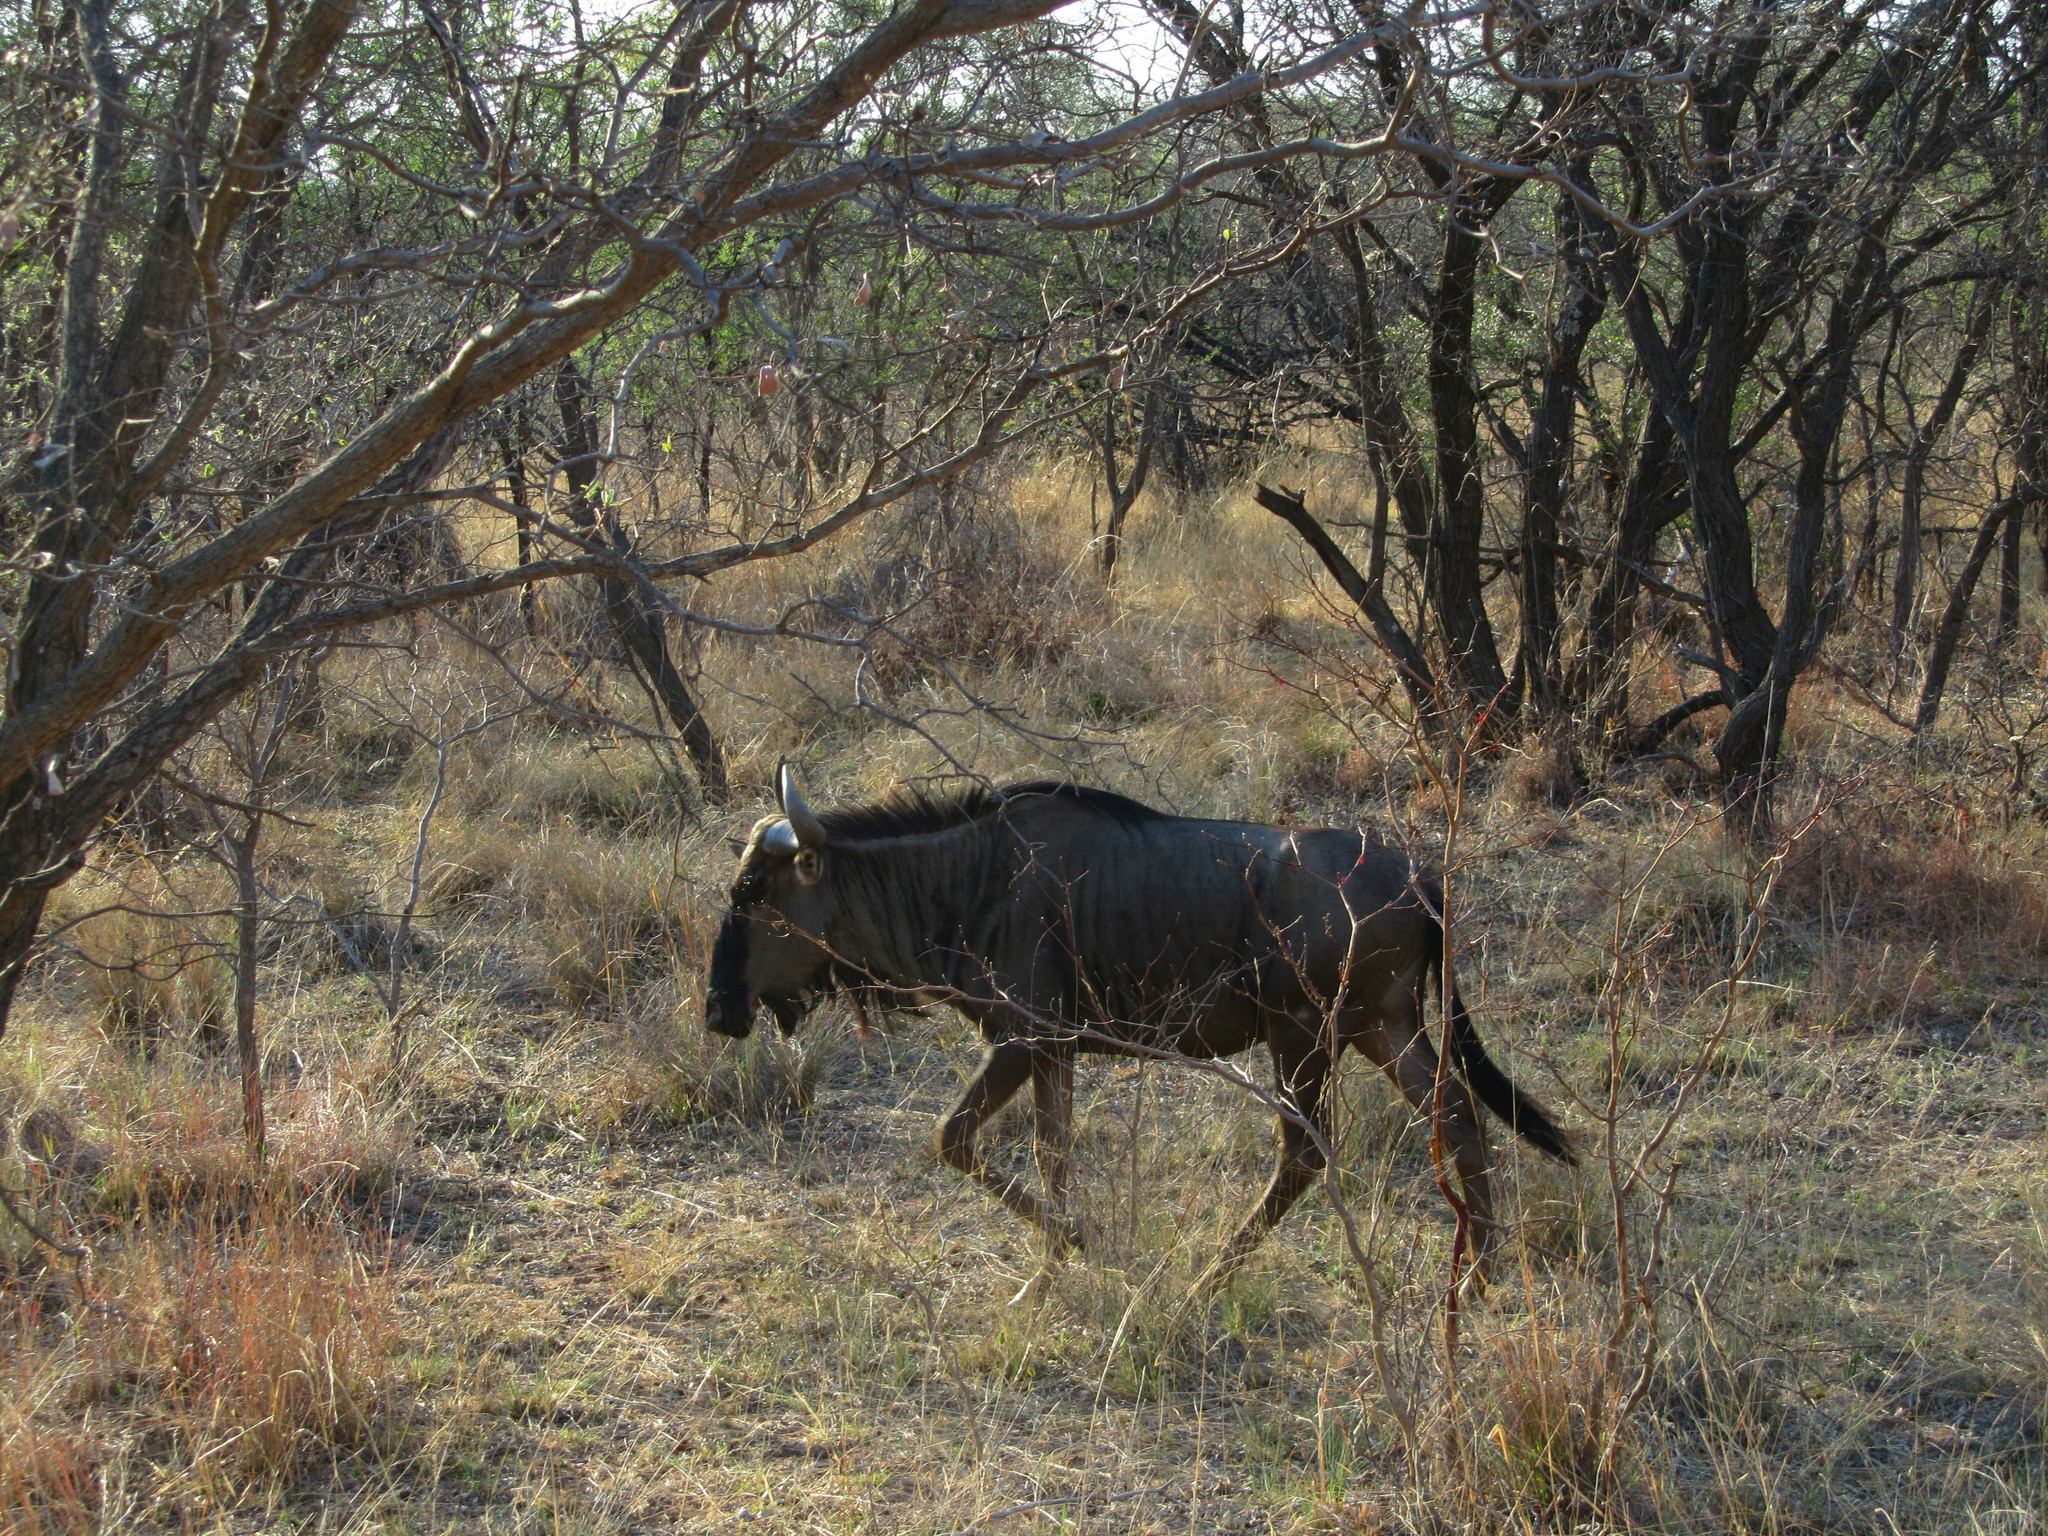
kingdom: Animalia
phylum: Chordata
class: Mammalia
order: Artiodactyla
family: Bovidae
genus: Connochaetes
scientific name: Connochaetes taurinus
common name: Blue wildebeest
